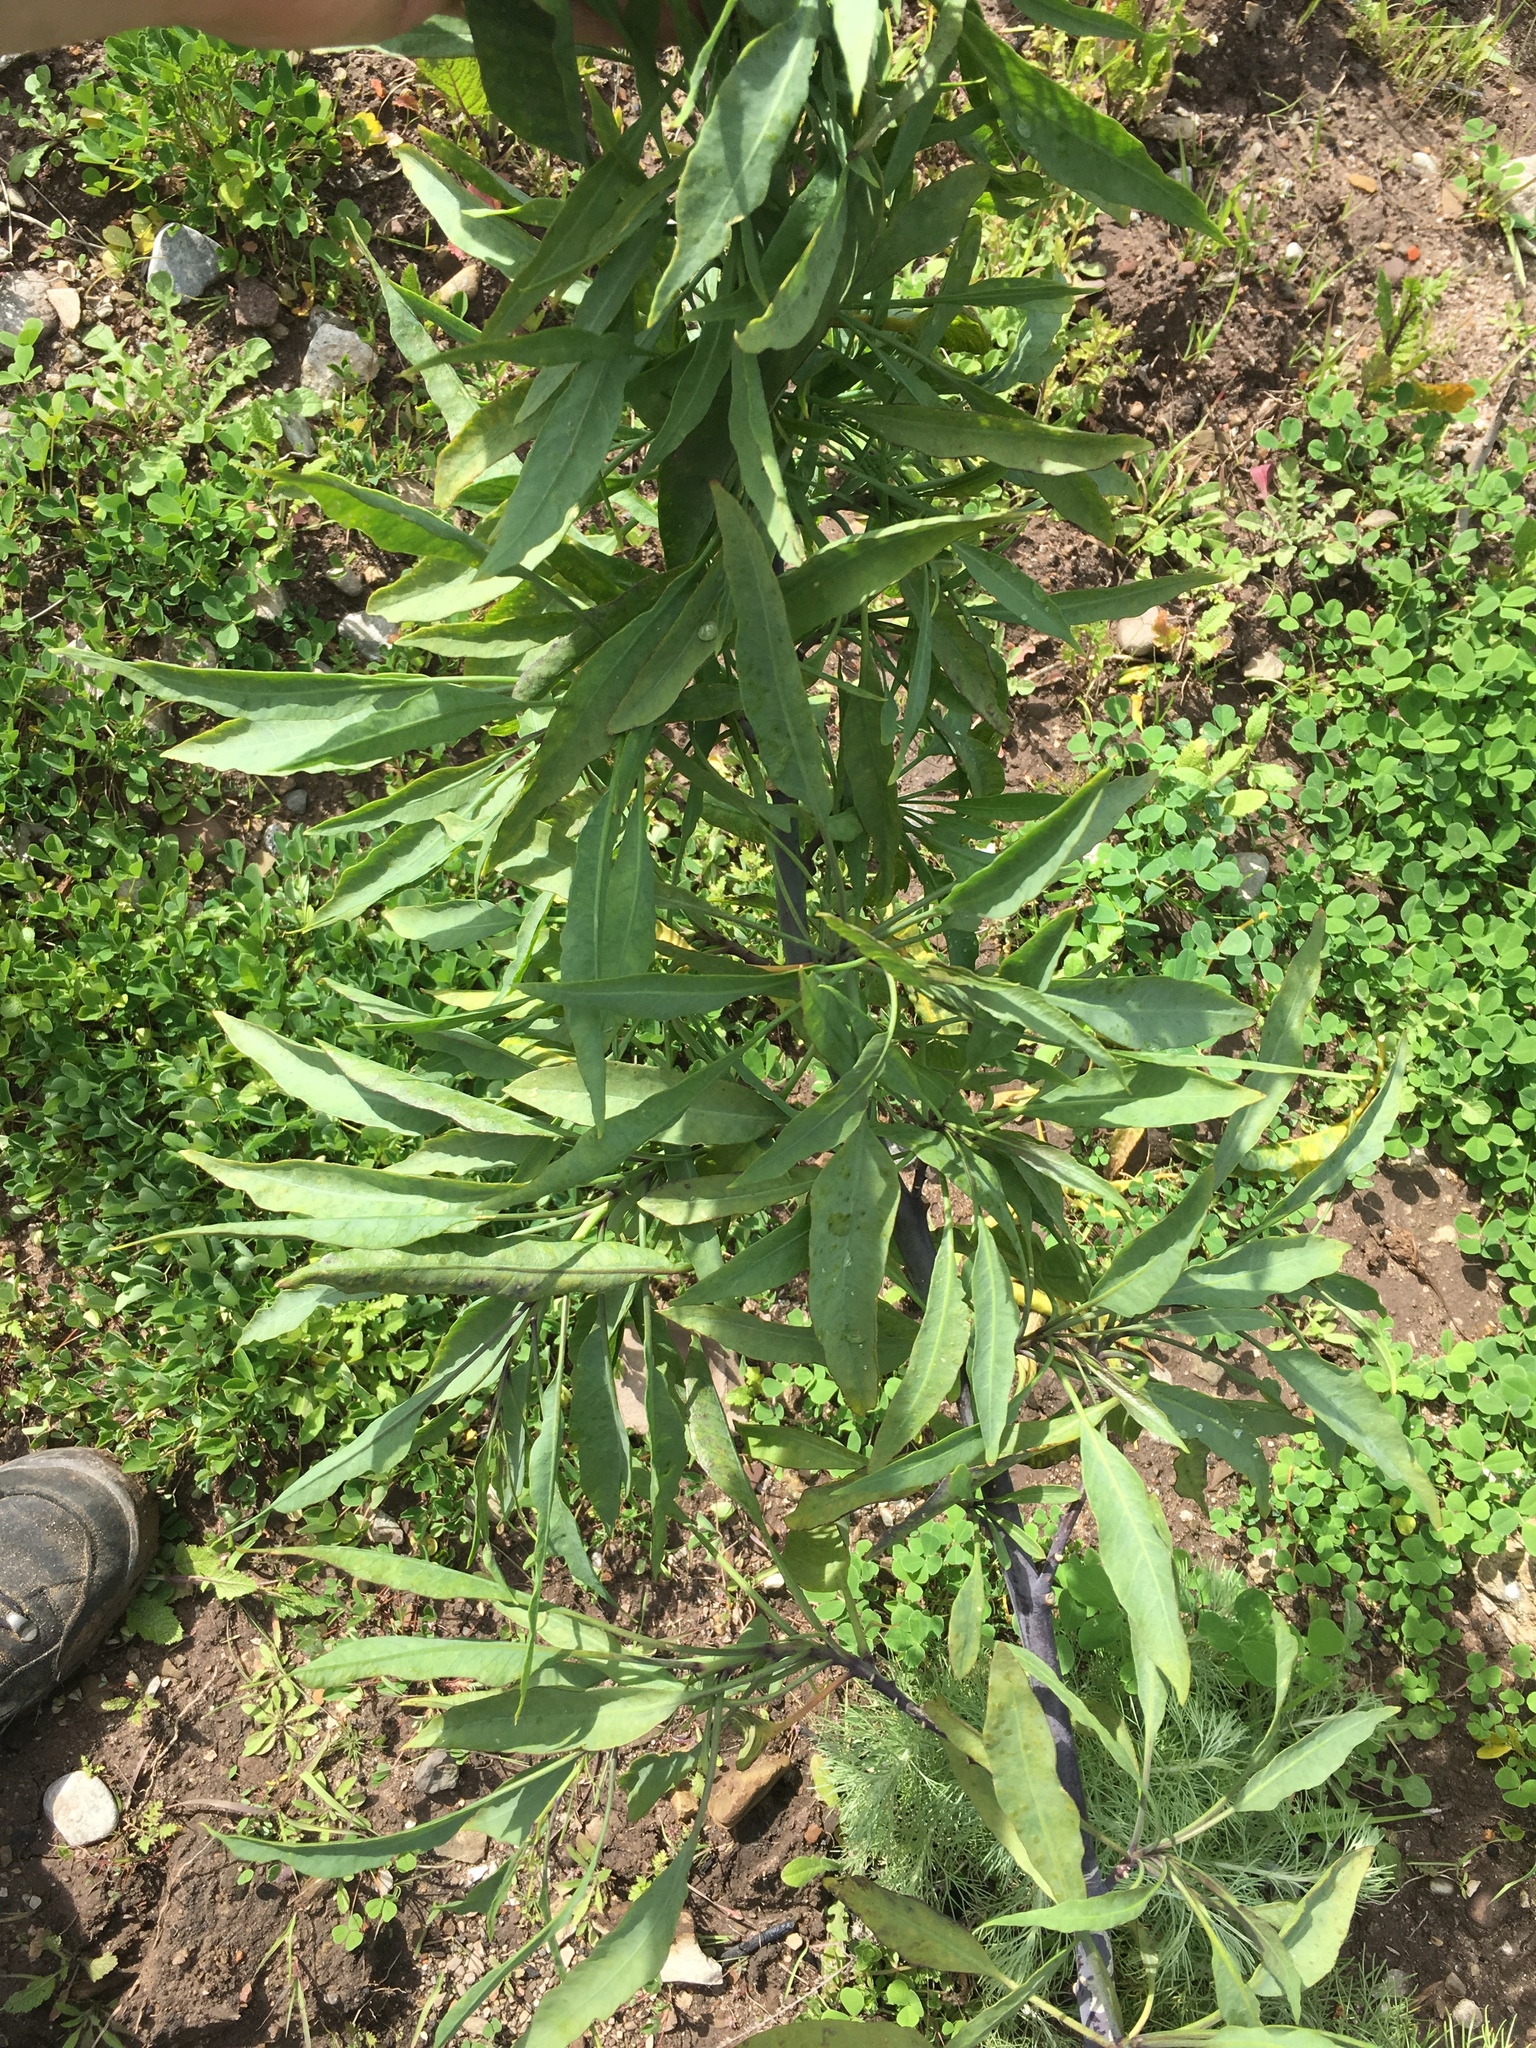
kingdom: Plantae
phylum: Tracheophyta
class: Magnoliopsida
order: Solanales
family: Solanaceae
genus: Nicotiana
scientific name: Nicotiana glauca
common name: Tree tobacco
